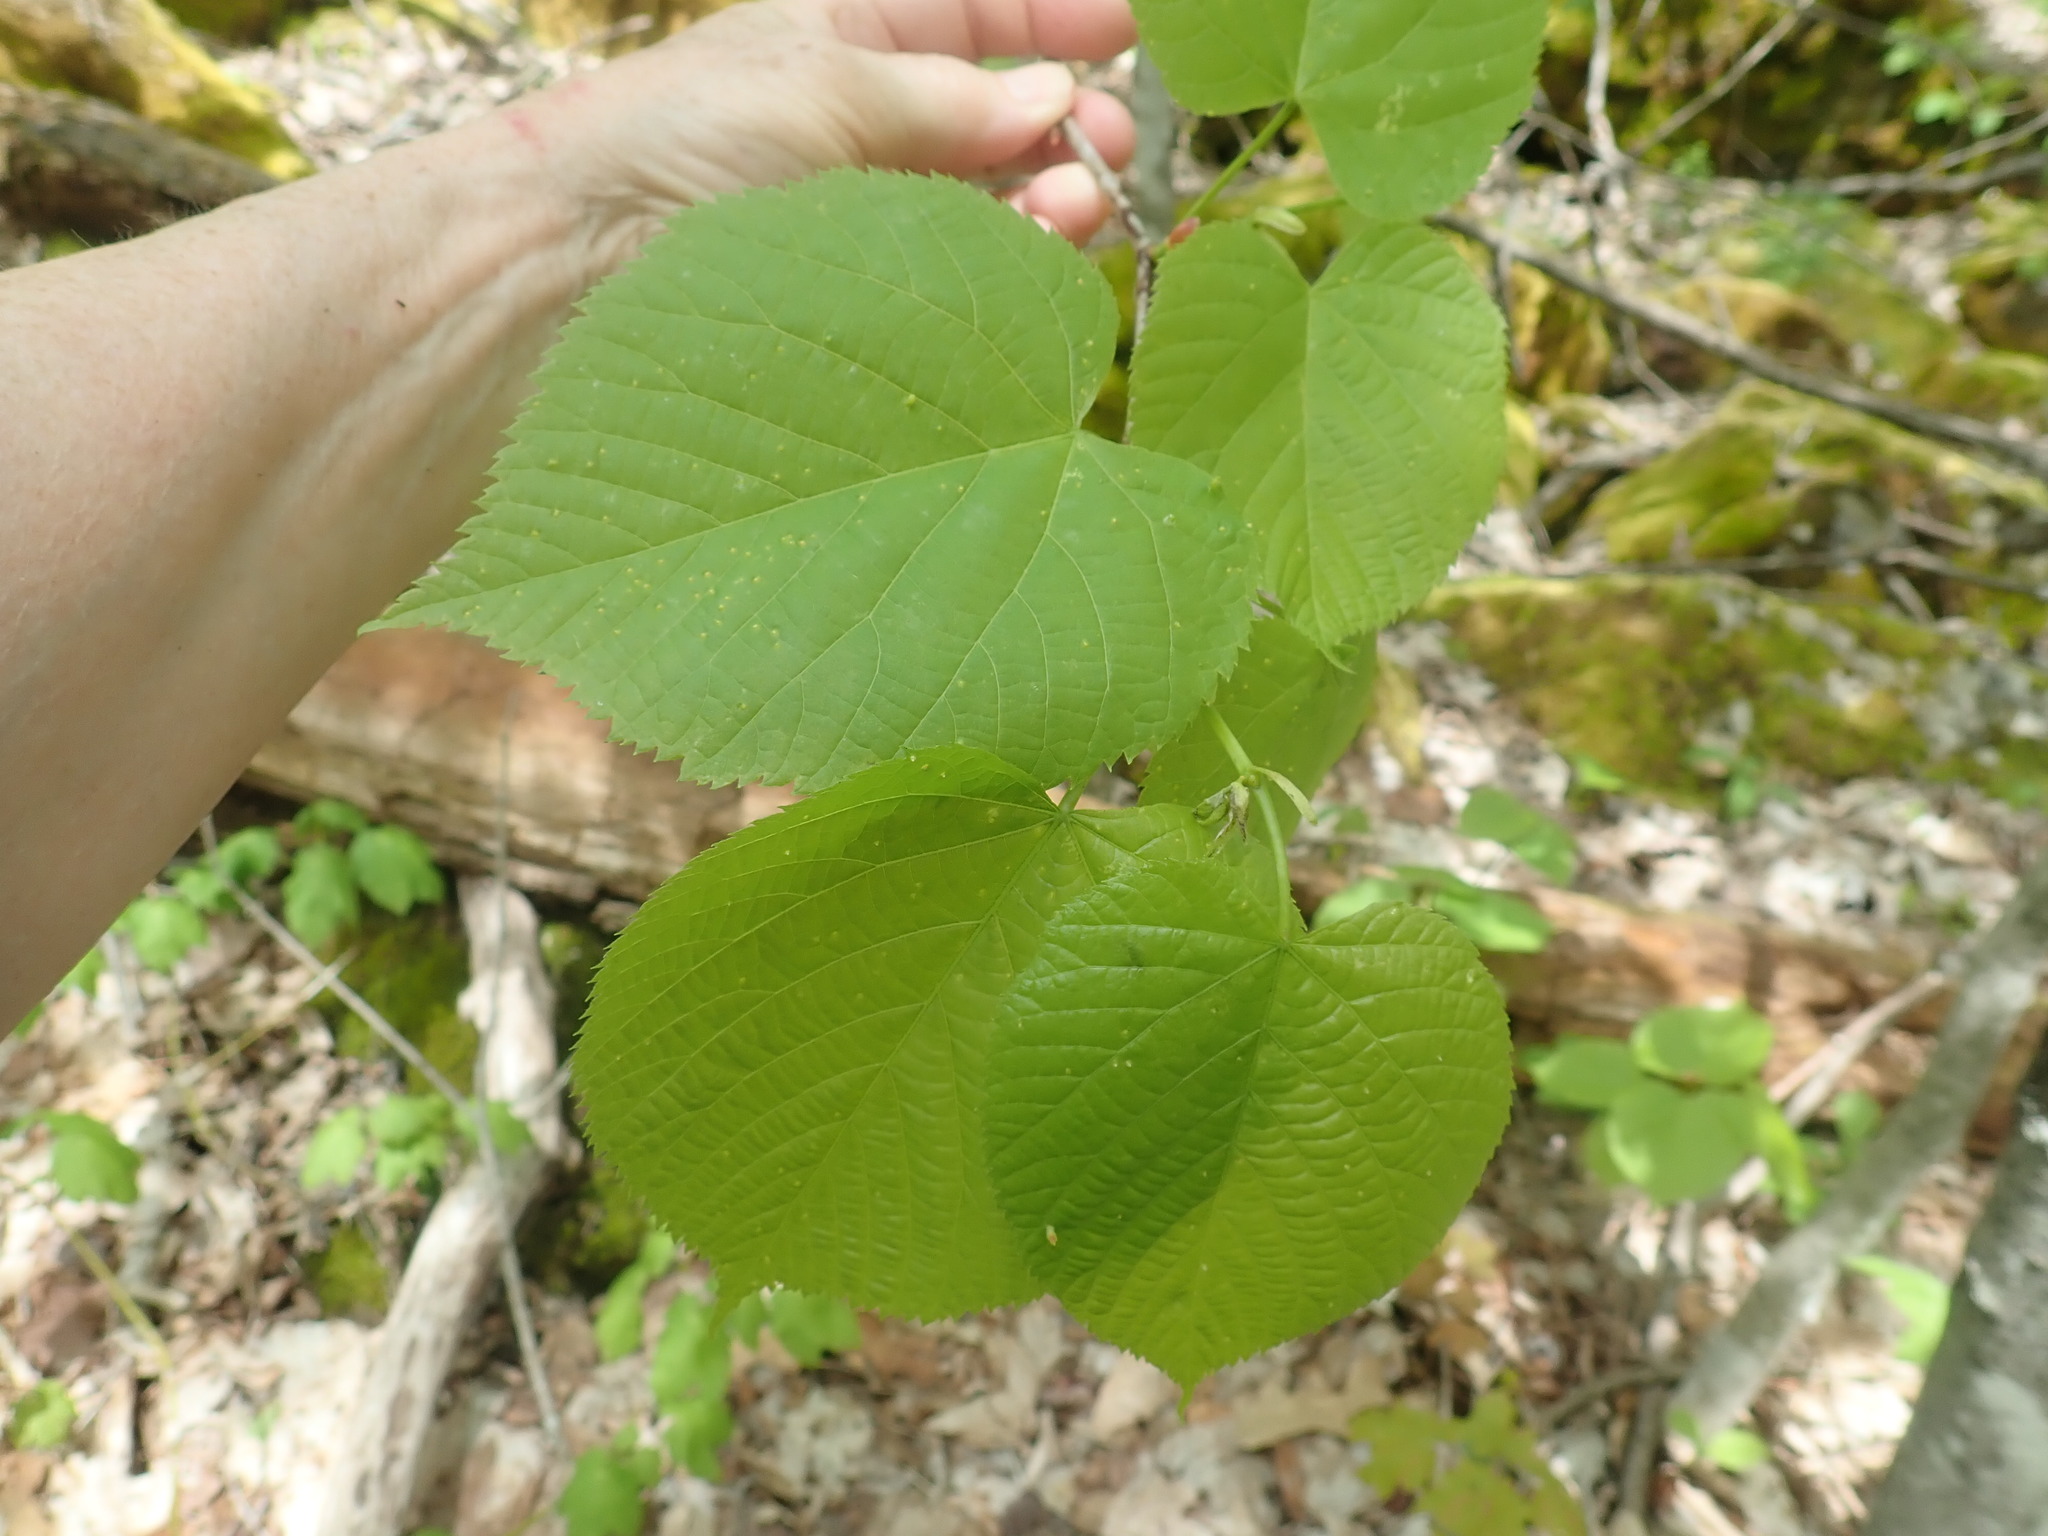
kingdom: Plantae
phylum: Tracheophyta
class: Magnoliopsida
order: Malvales
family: Malvaceae
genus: Tilia
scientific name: Tilia americana
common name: Basswood
